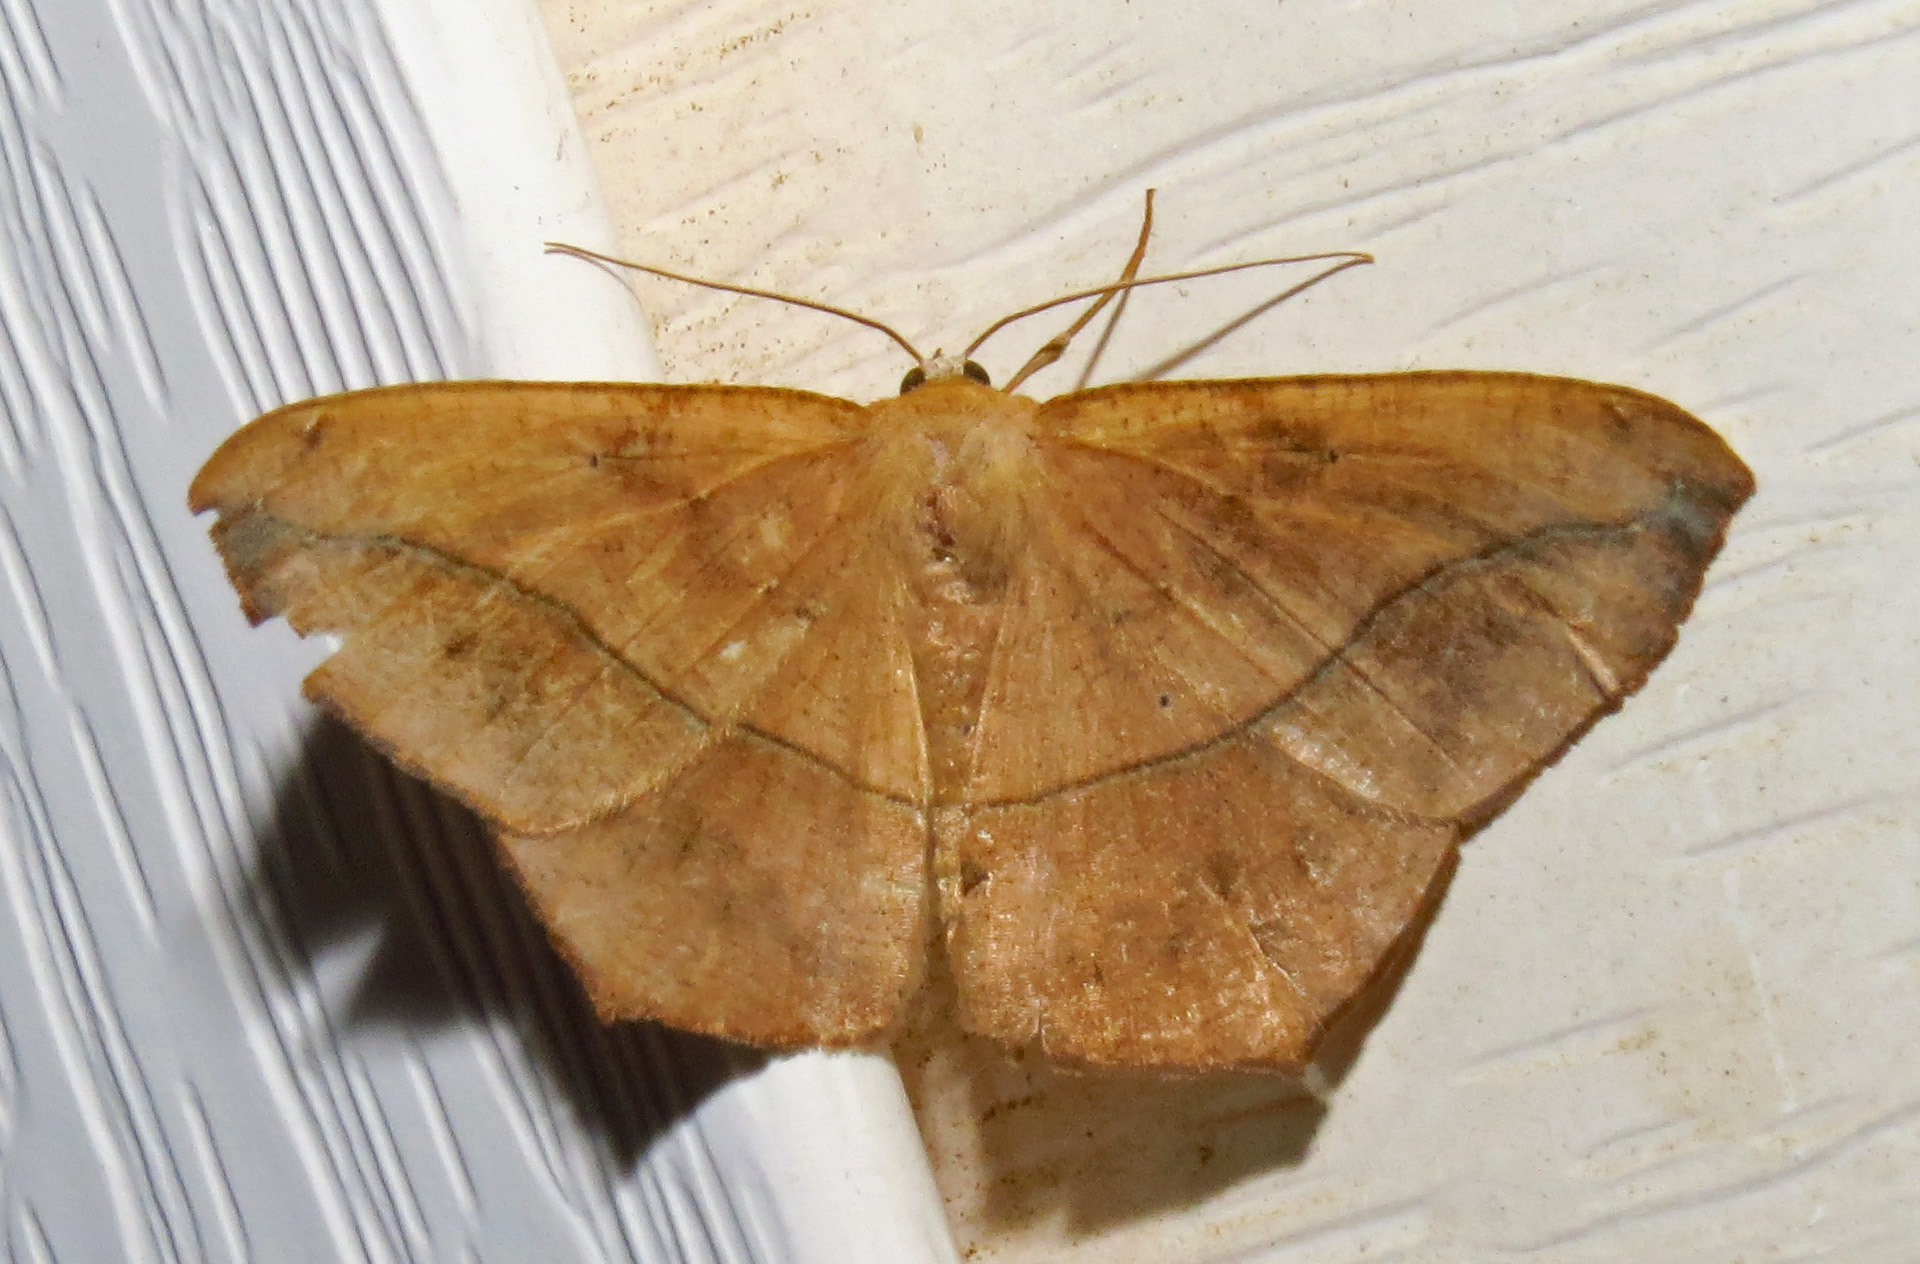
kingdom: Animalia
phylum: Arthropoda
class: Insecta
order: Lepidoptera
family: Geometridae
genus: Prochoerodes
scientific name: Prochoerodes lineola
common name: Large maple spanworm
